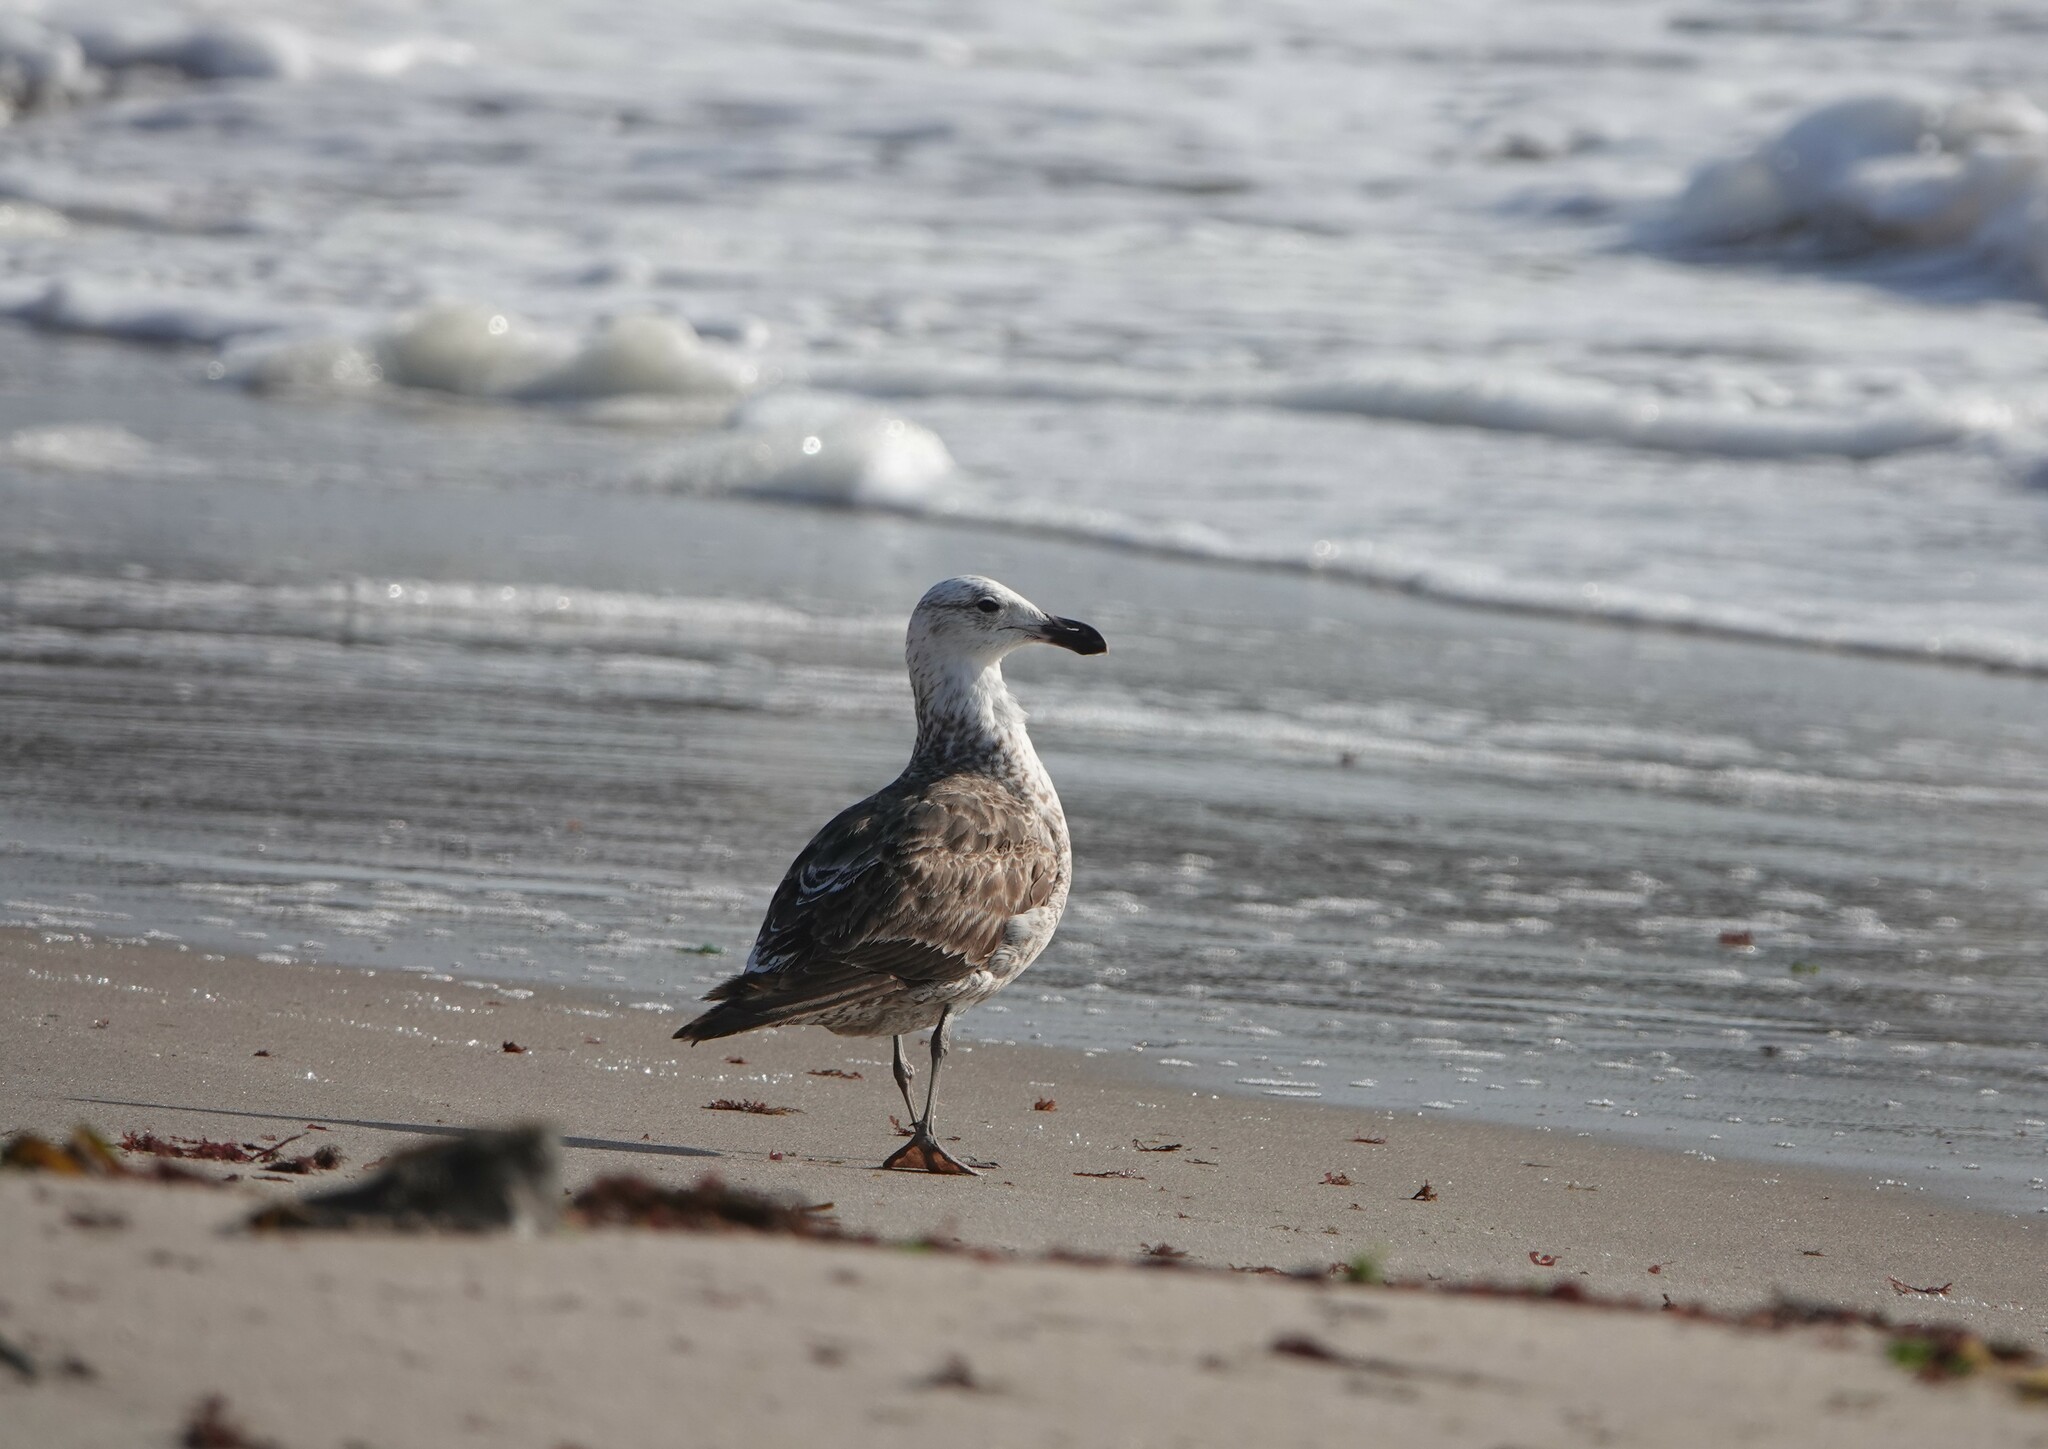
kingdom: Animalia
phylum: Chordata
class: Aves
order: Charadriiformes
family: Laridae
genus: Larus
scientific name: Larus dominicanus
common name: Kelp gull
